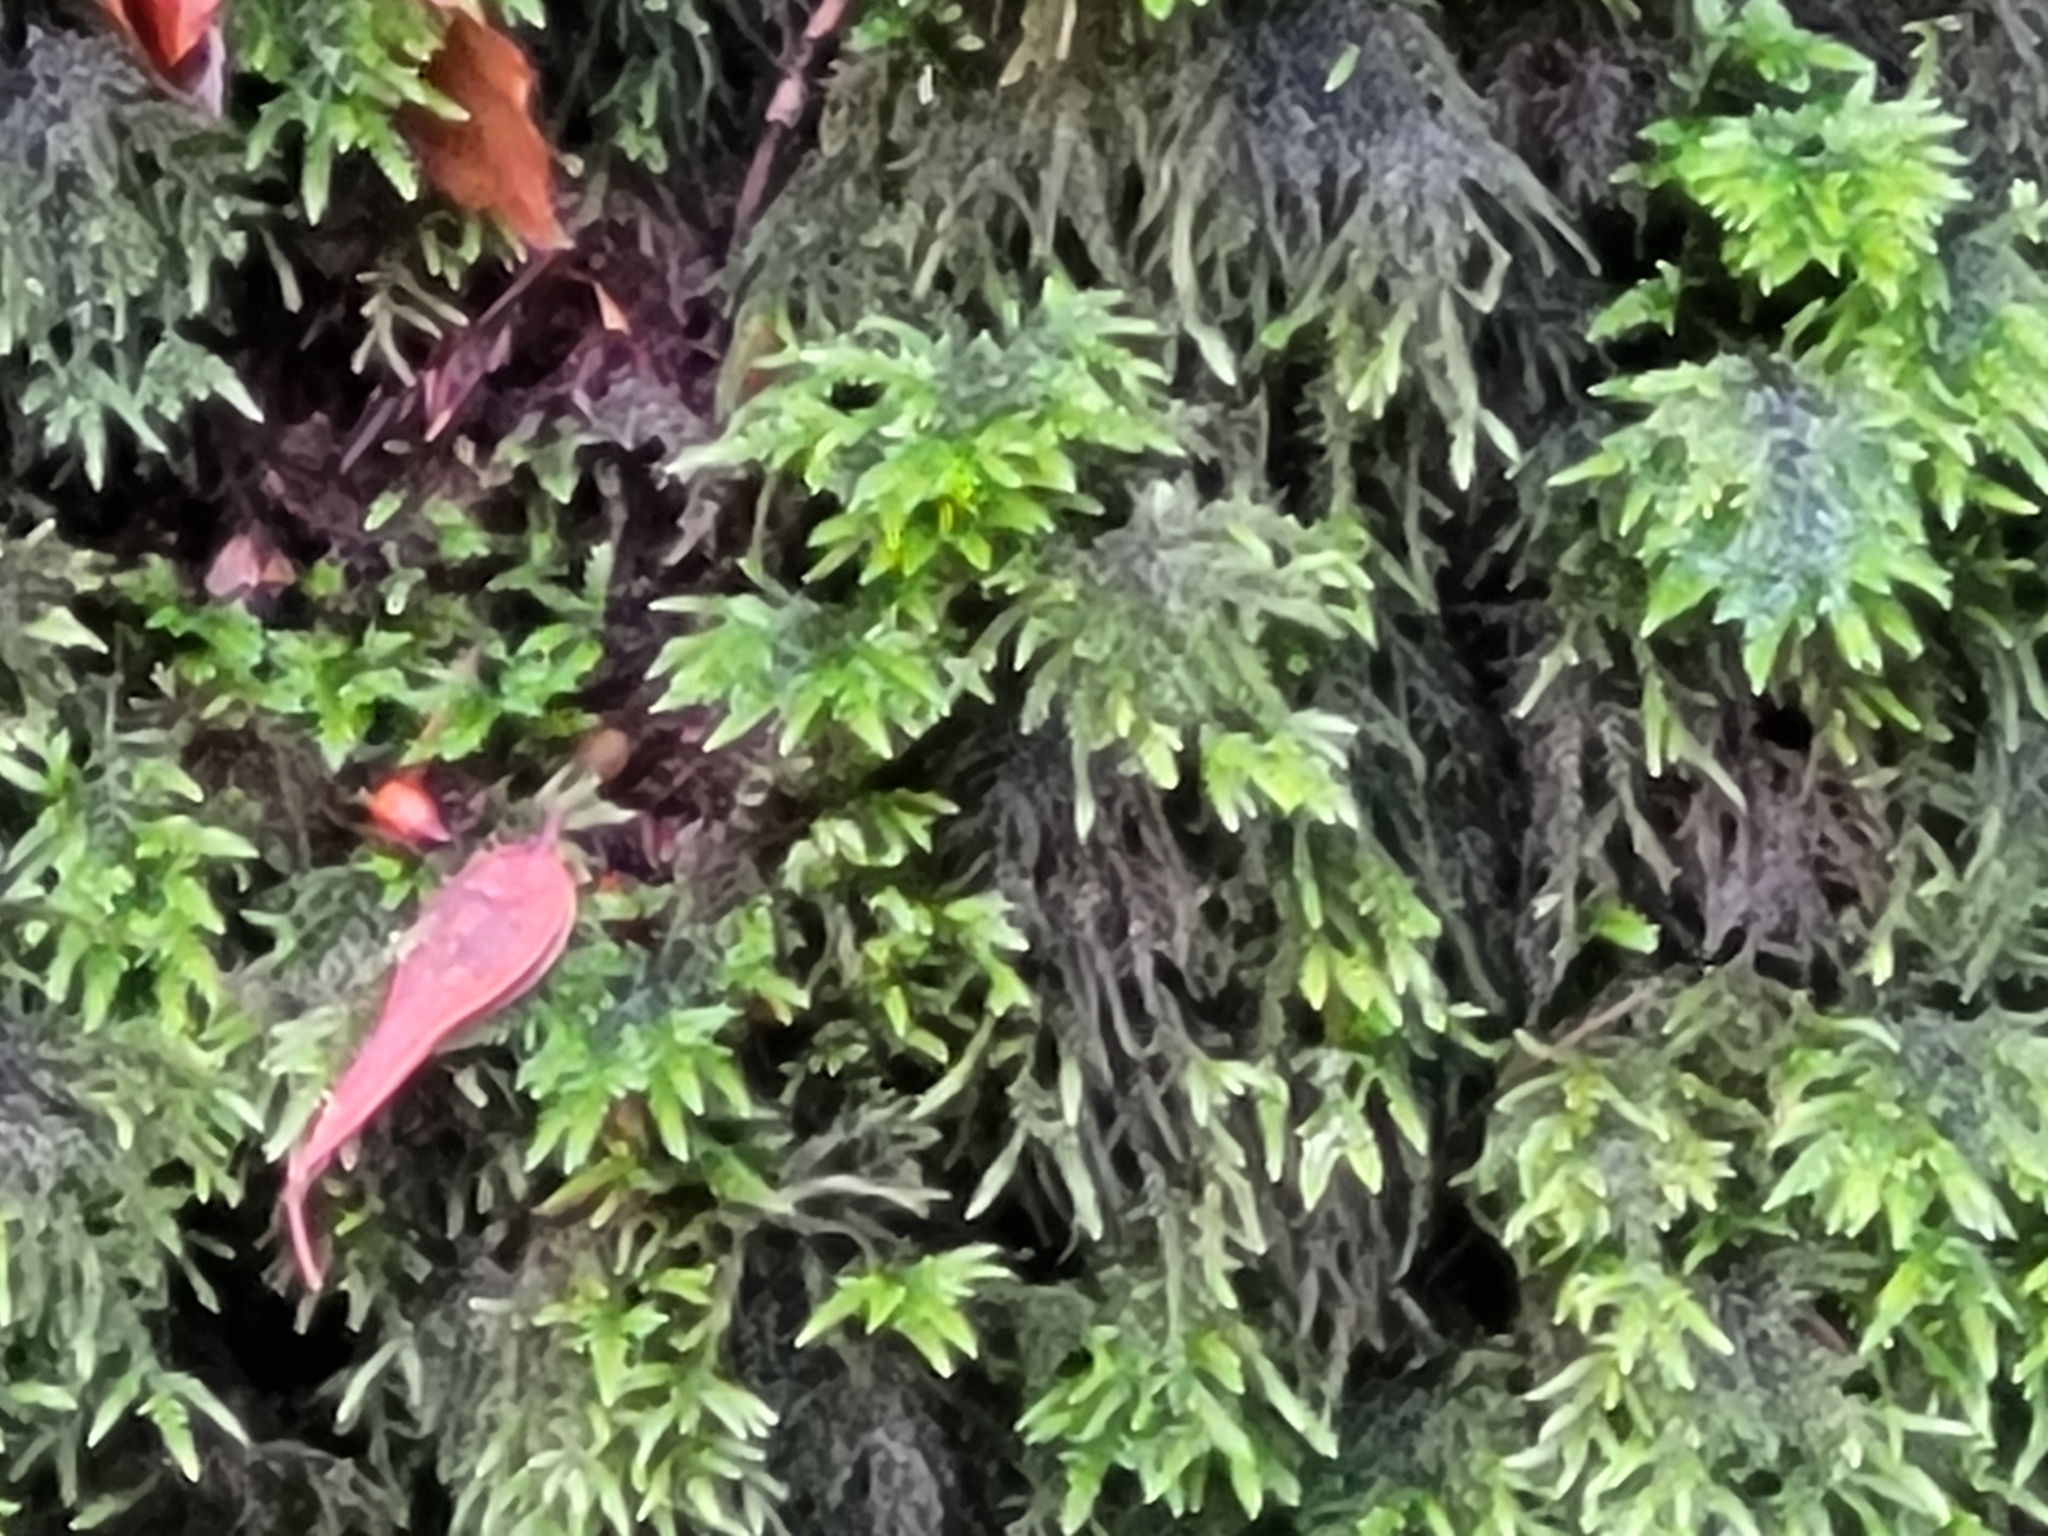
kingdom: Plantae
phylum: Bryophyta
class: Bryopsida
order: Hypnales
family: Neckeraceae
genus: Thamnobryum
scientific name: Thamnobryum alopecurum
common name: Fox-tail feather-moss
